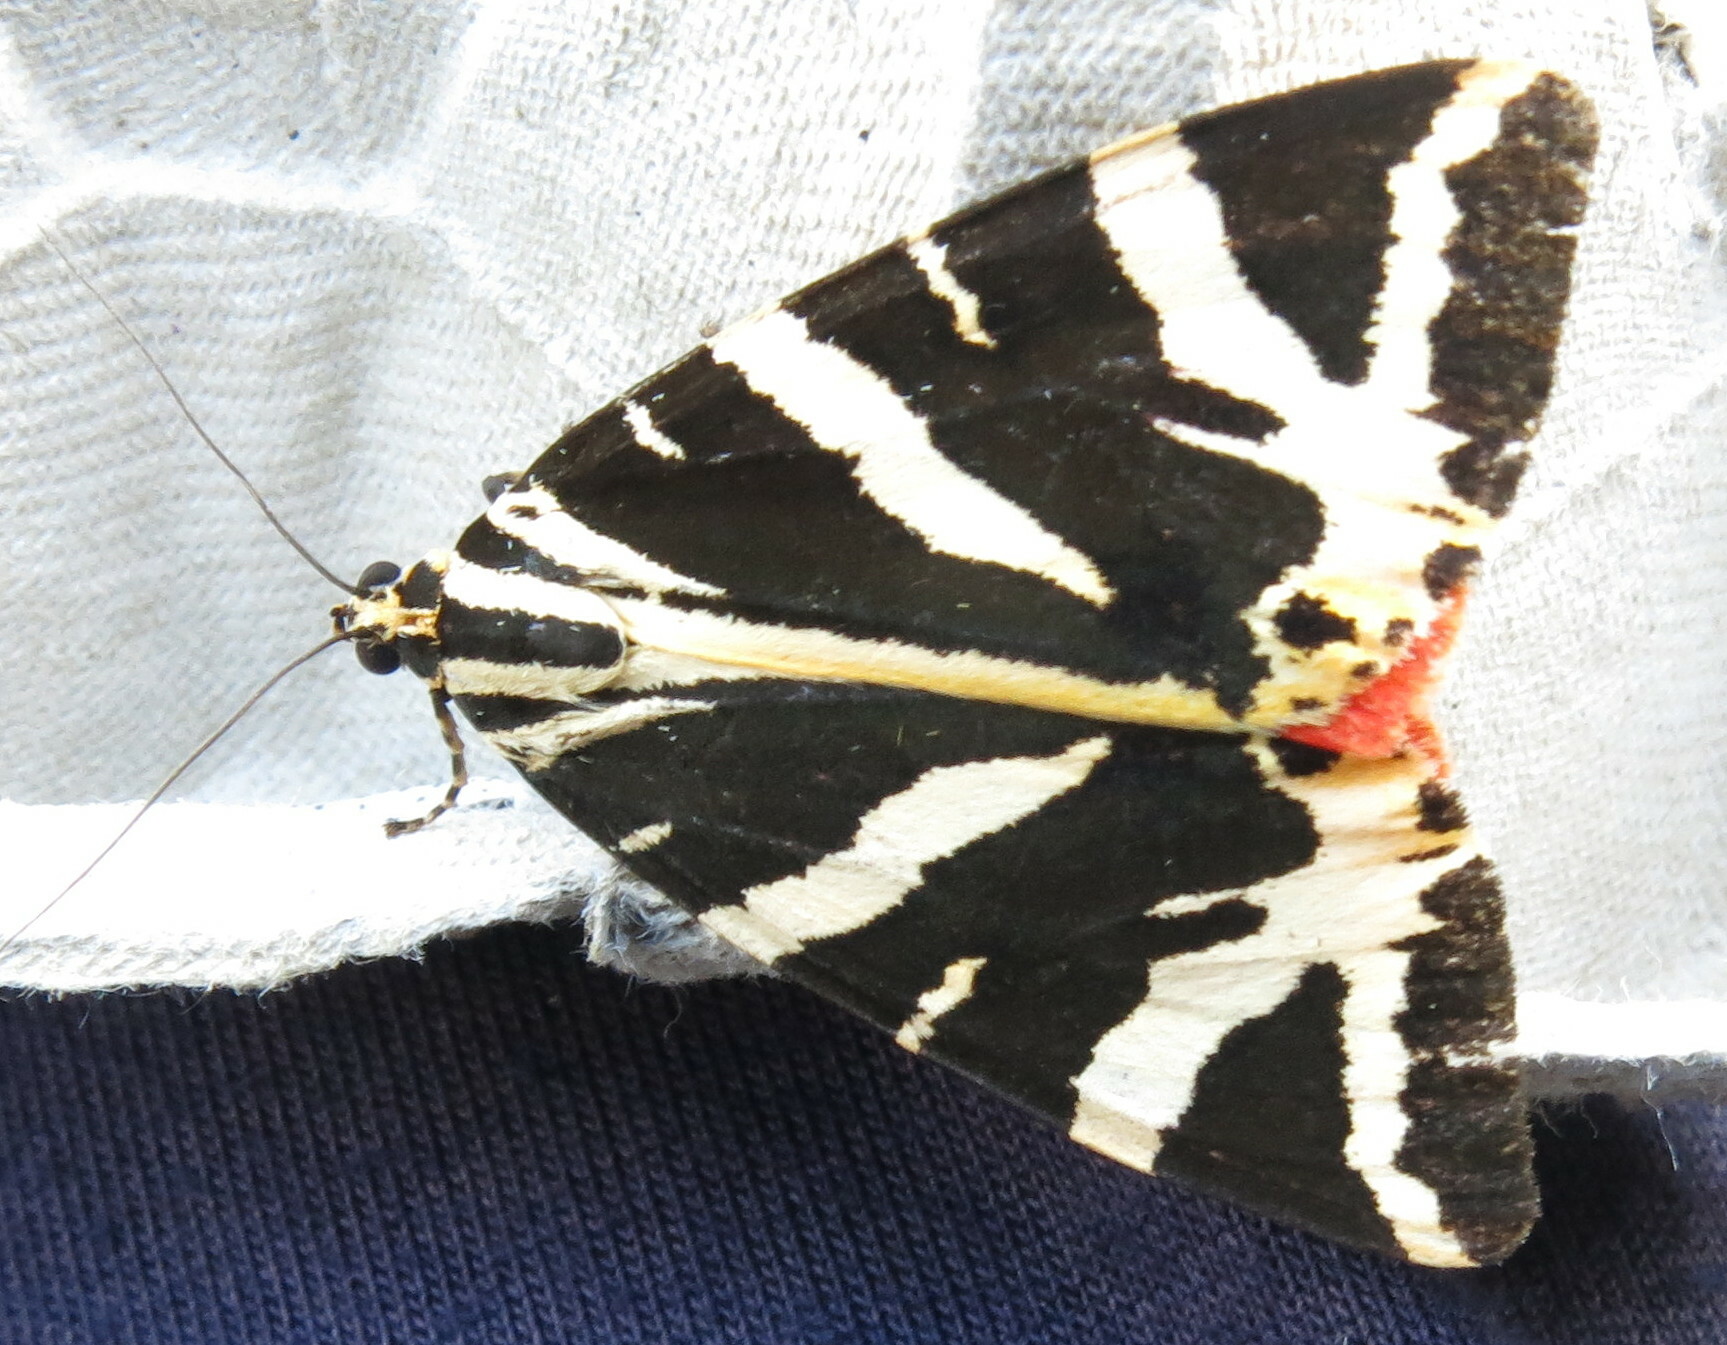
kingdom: Animalia
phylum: Arthropoda
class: Insecta
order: Lepidoptera
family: Erebidae
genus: Euplagia
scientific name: Euplagia quadripunctaria
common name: Jersey tiger
